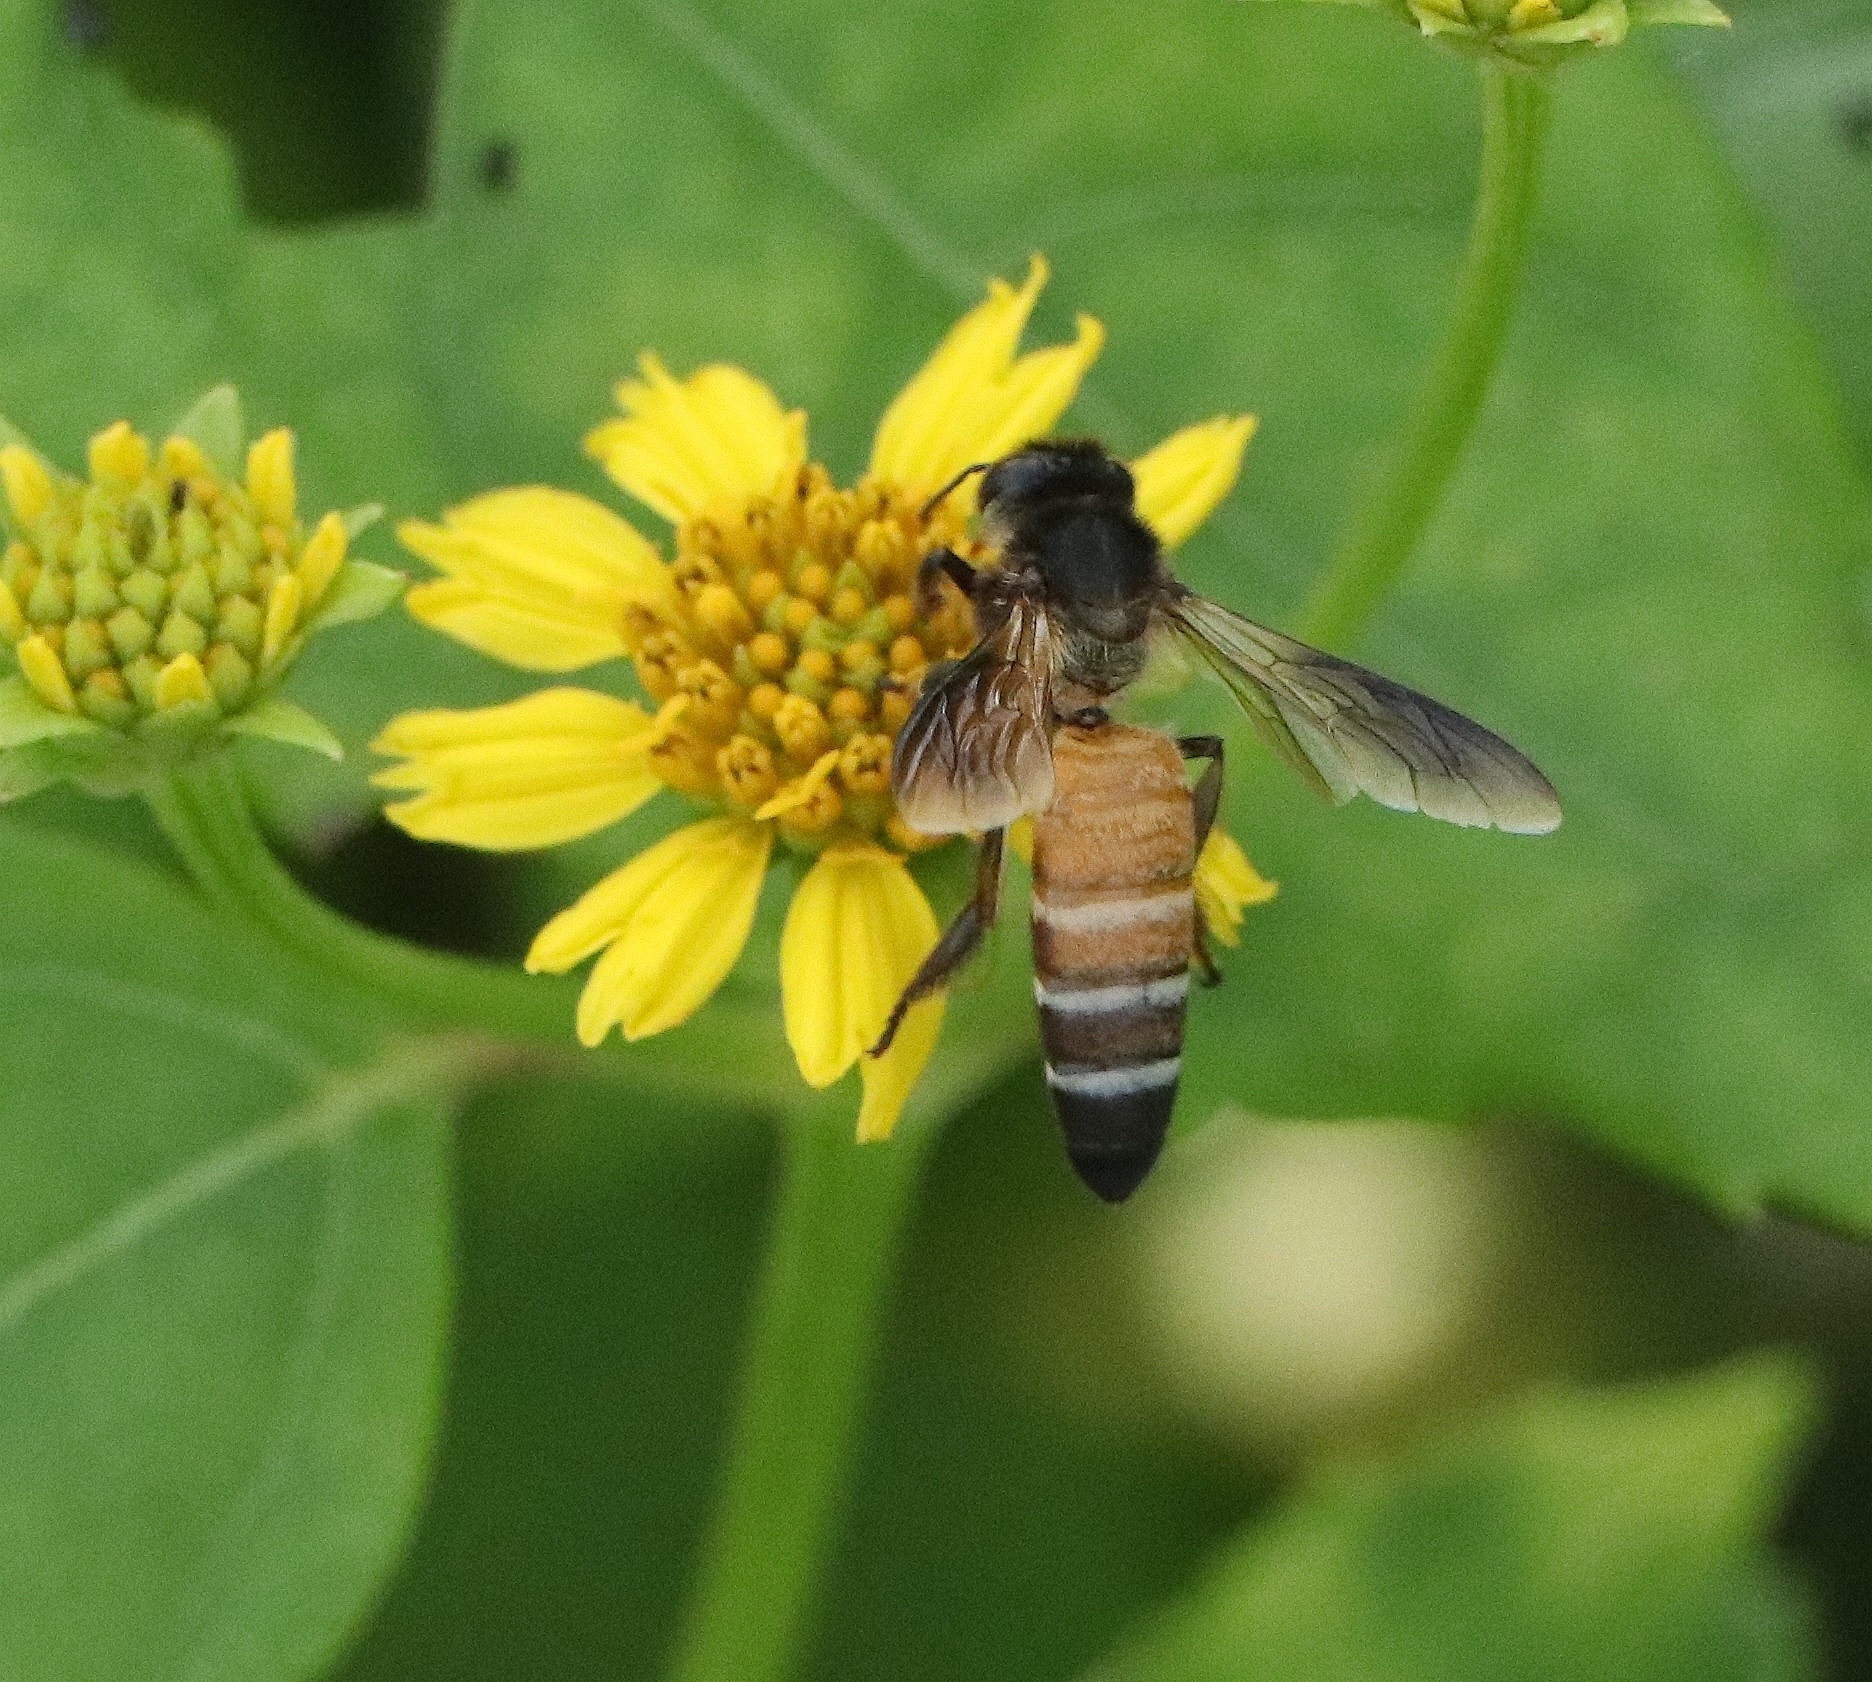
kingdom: Animalia
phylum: Arthropoda
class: Insecta
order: Hymenoptera
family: Apidae
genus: Apis
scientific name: Apis dorsata
